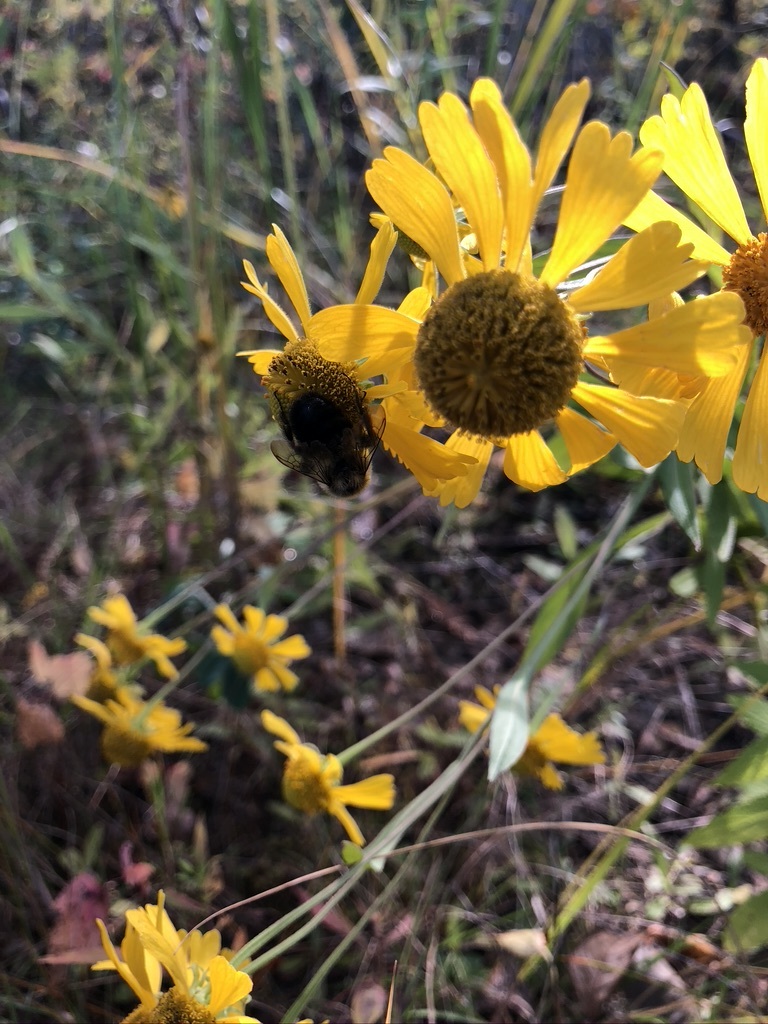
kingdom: Plantae
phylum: Tracheophyta
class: Magnoliopsida
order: Asterales
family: Asteraceae
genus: Helenium
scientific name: Helenium autumnale
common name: Sneezeweed
